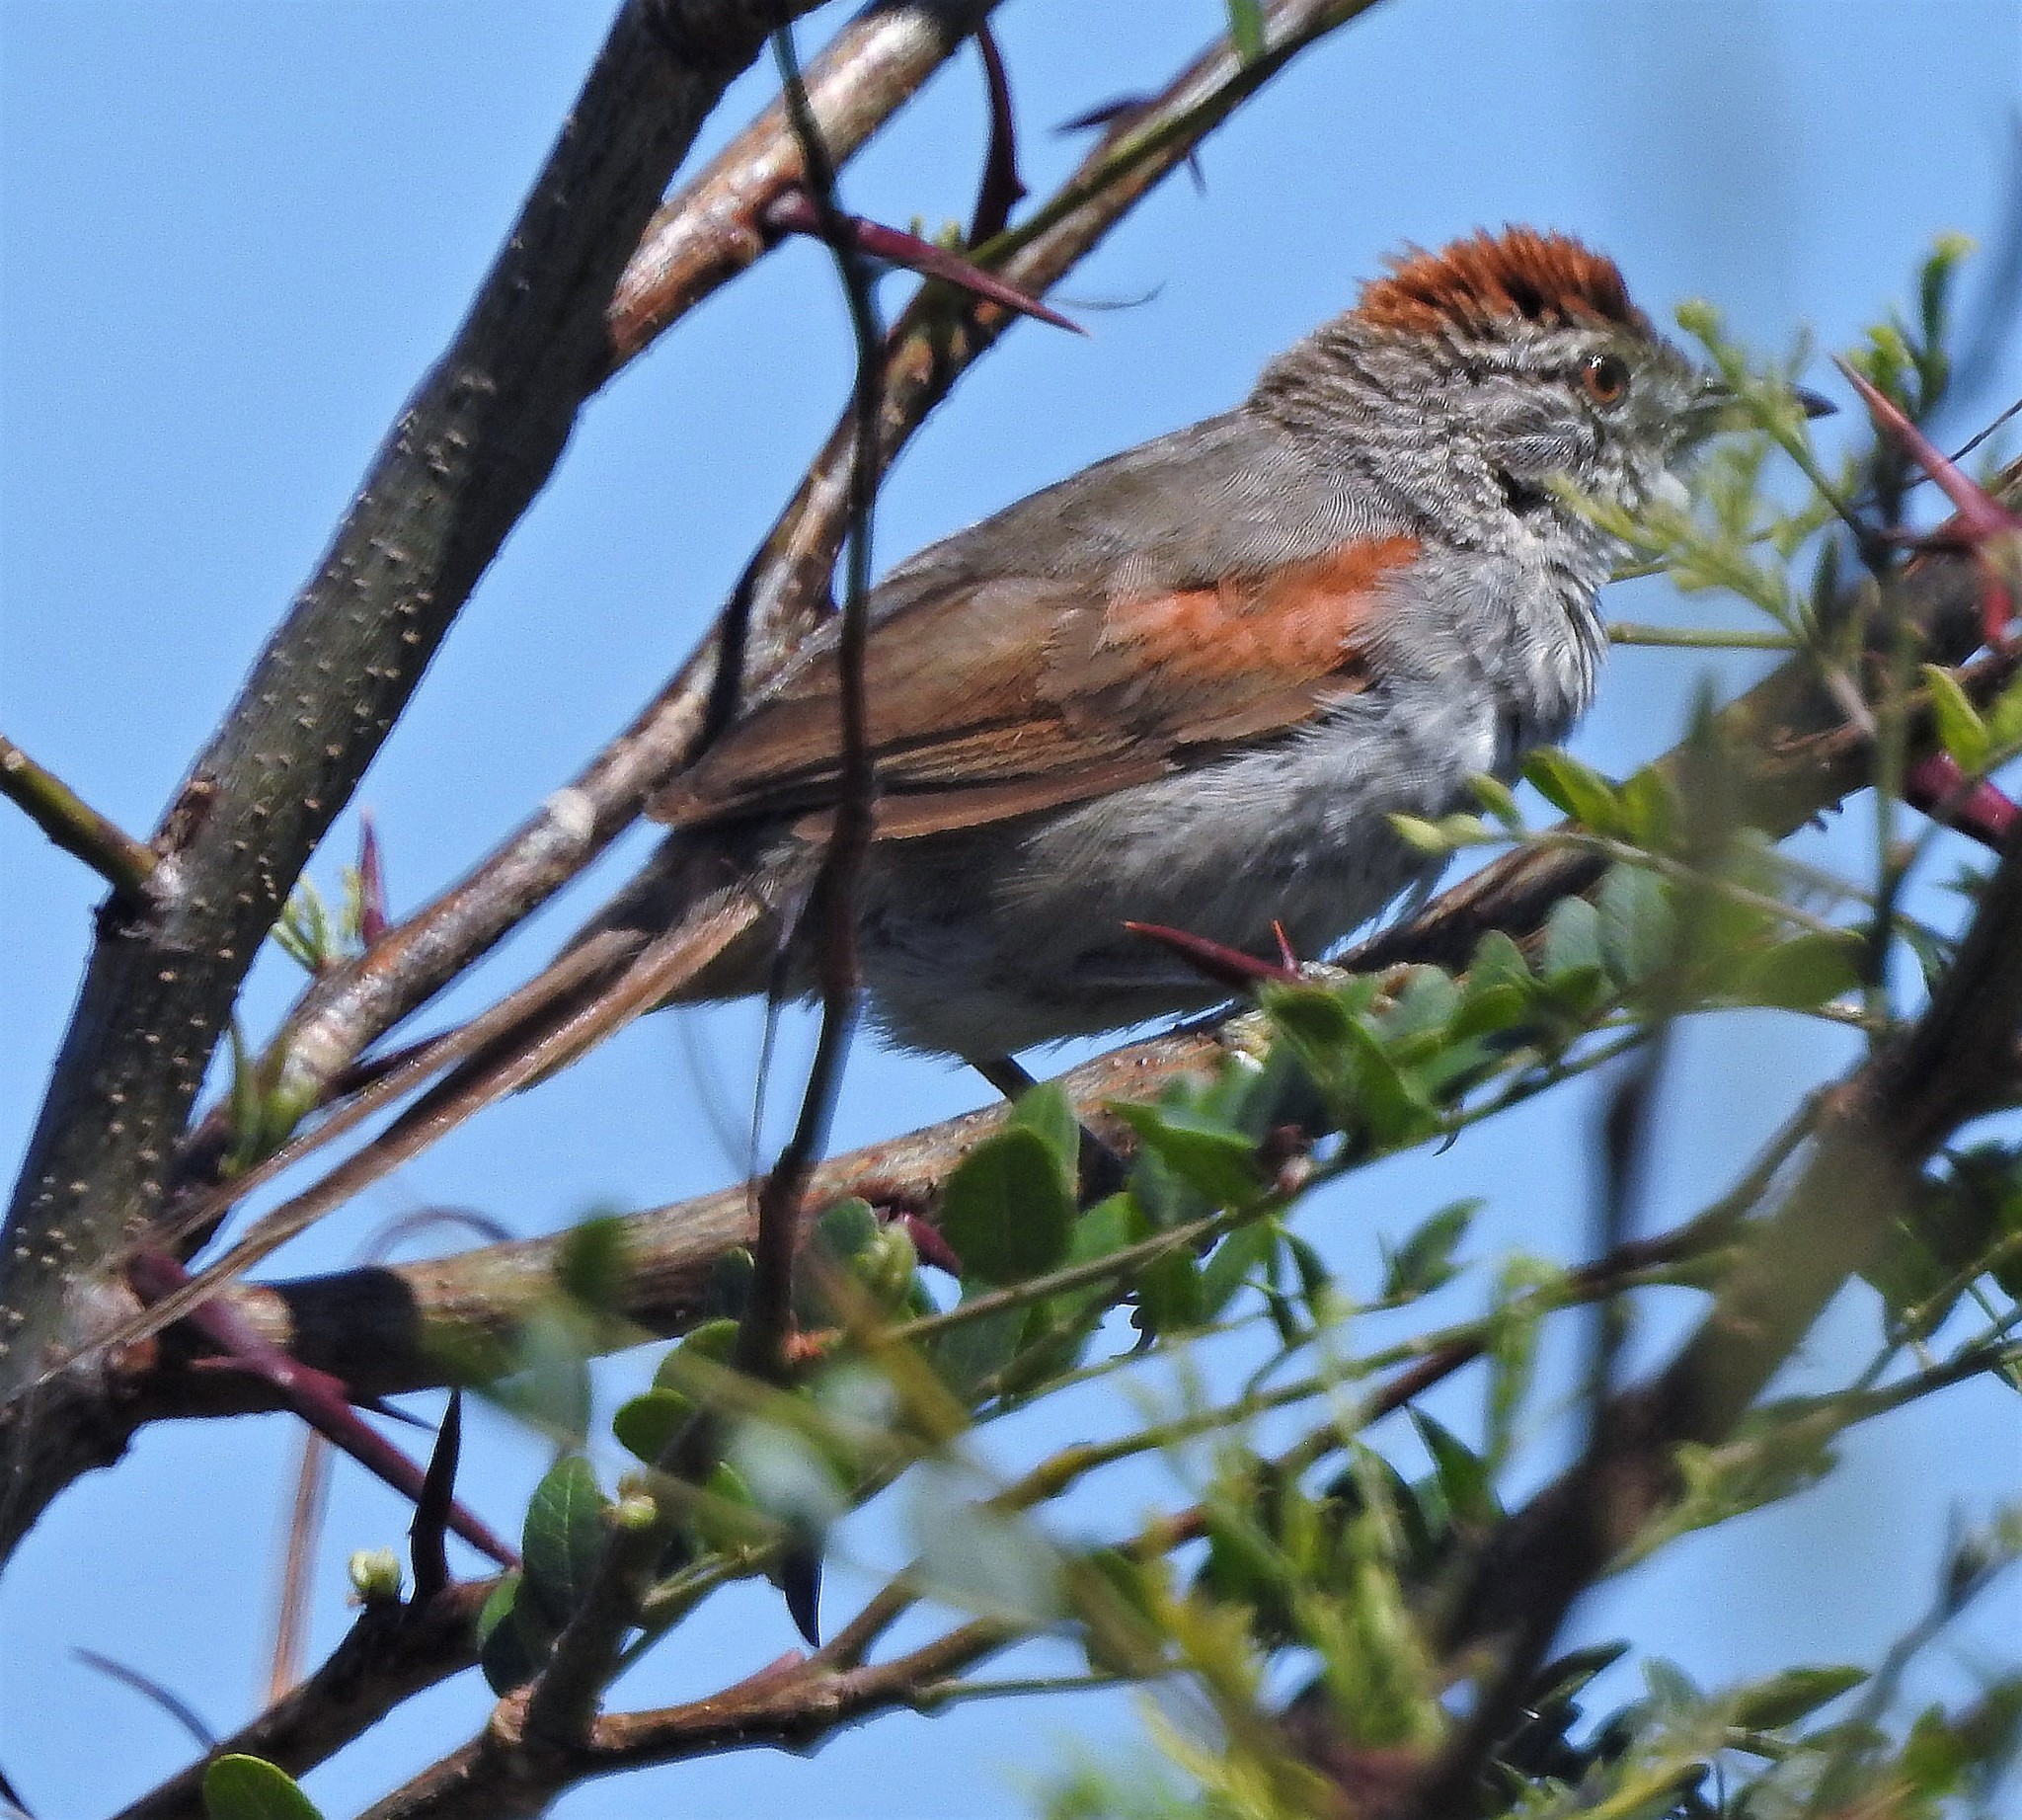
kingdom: Animalia
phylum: Chordata
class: Aves
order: Passeriformes
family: Furnariidae
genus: Synallaxis
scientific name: Synallaxis albescens
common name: Pale-breasted spinetail
